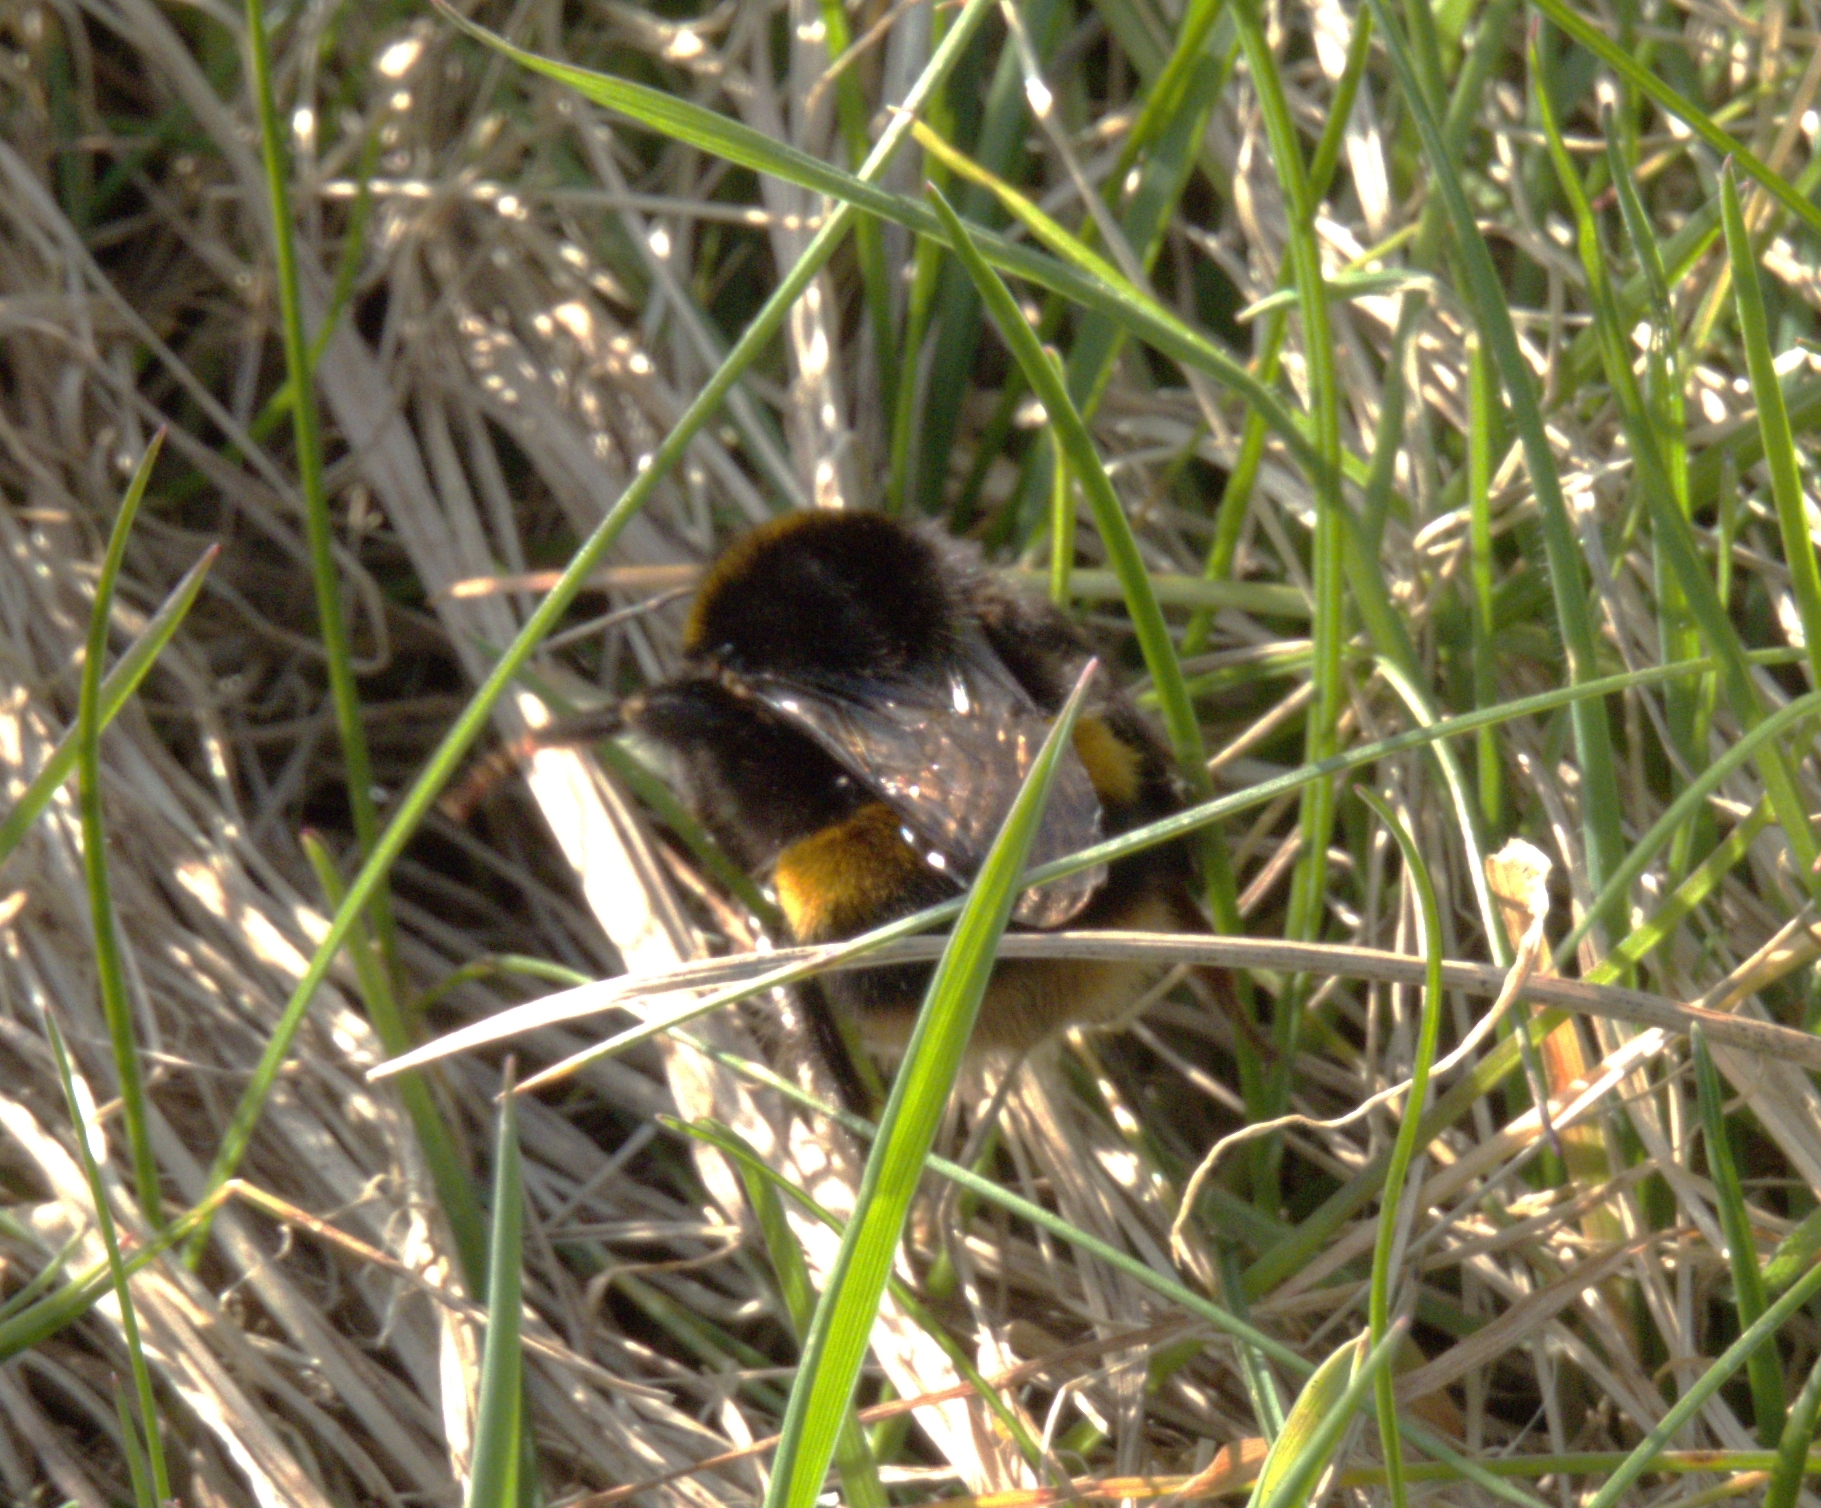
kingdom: Animalia
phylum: Arthropoda
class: Insecta
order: Hymenoptera
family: Apidae
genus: Bombus
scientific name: Bombus terrestris
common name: Buff-tailed bumblebee
